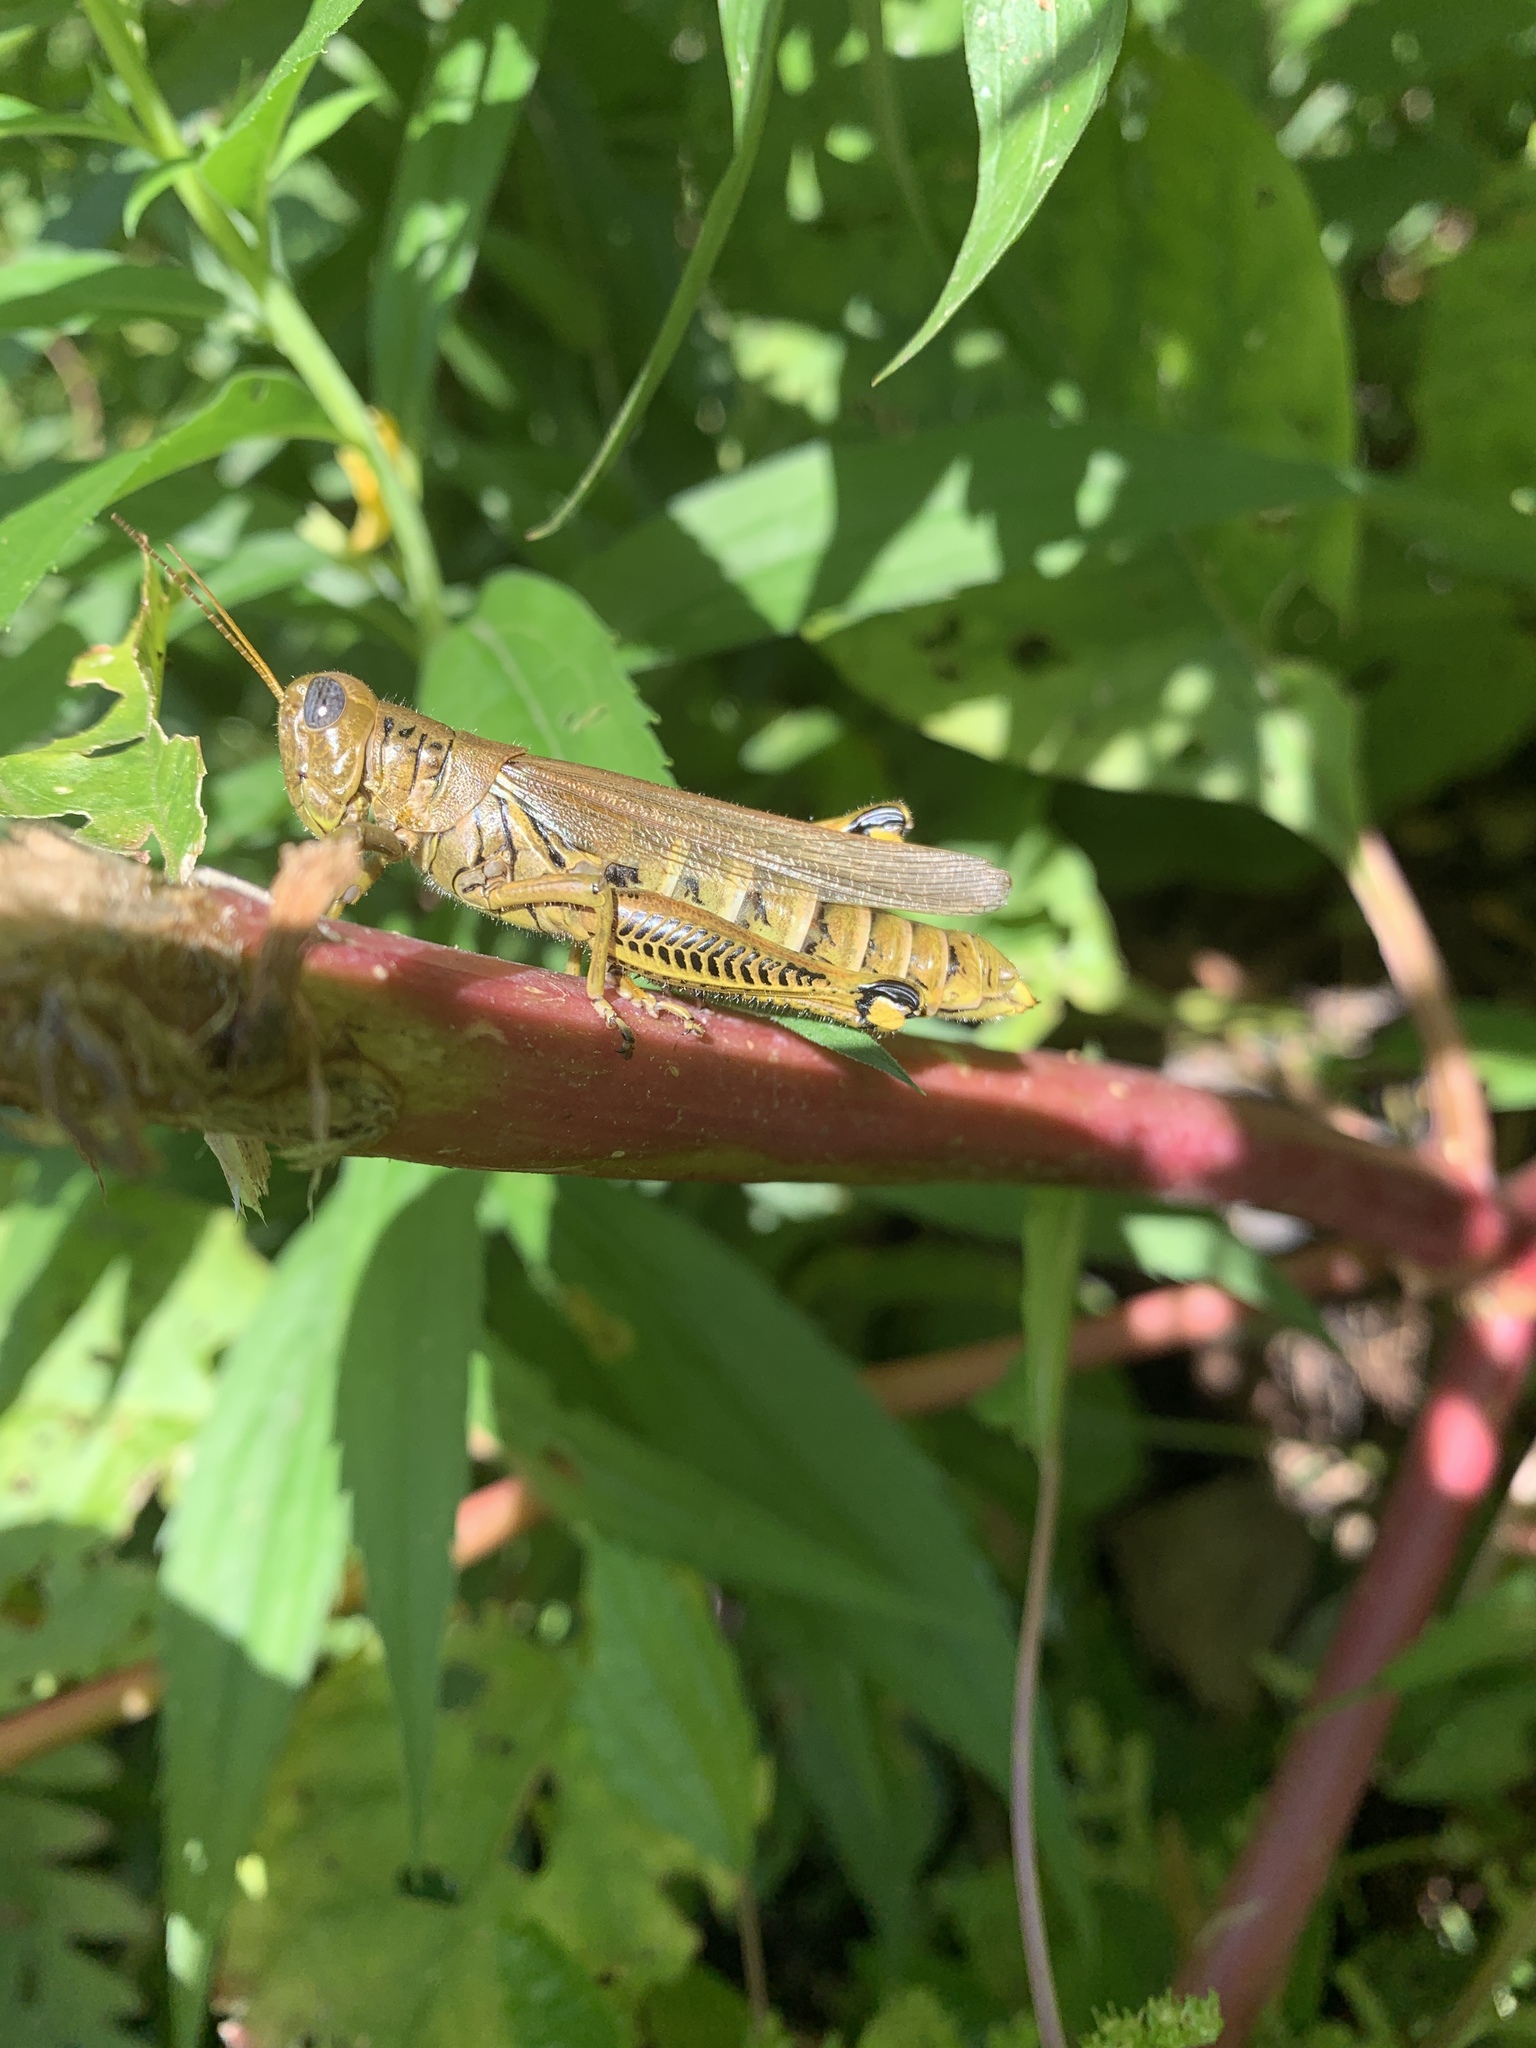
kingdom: Animalia
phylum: Arthropoda
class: Insecta
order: Orthoptera
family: Acrididae
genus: Melanoplus
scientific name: Melanoplus differentialis
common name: Differential grasshopper
